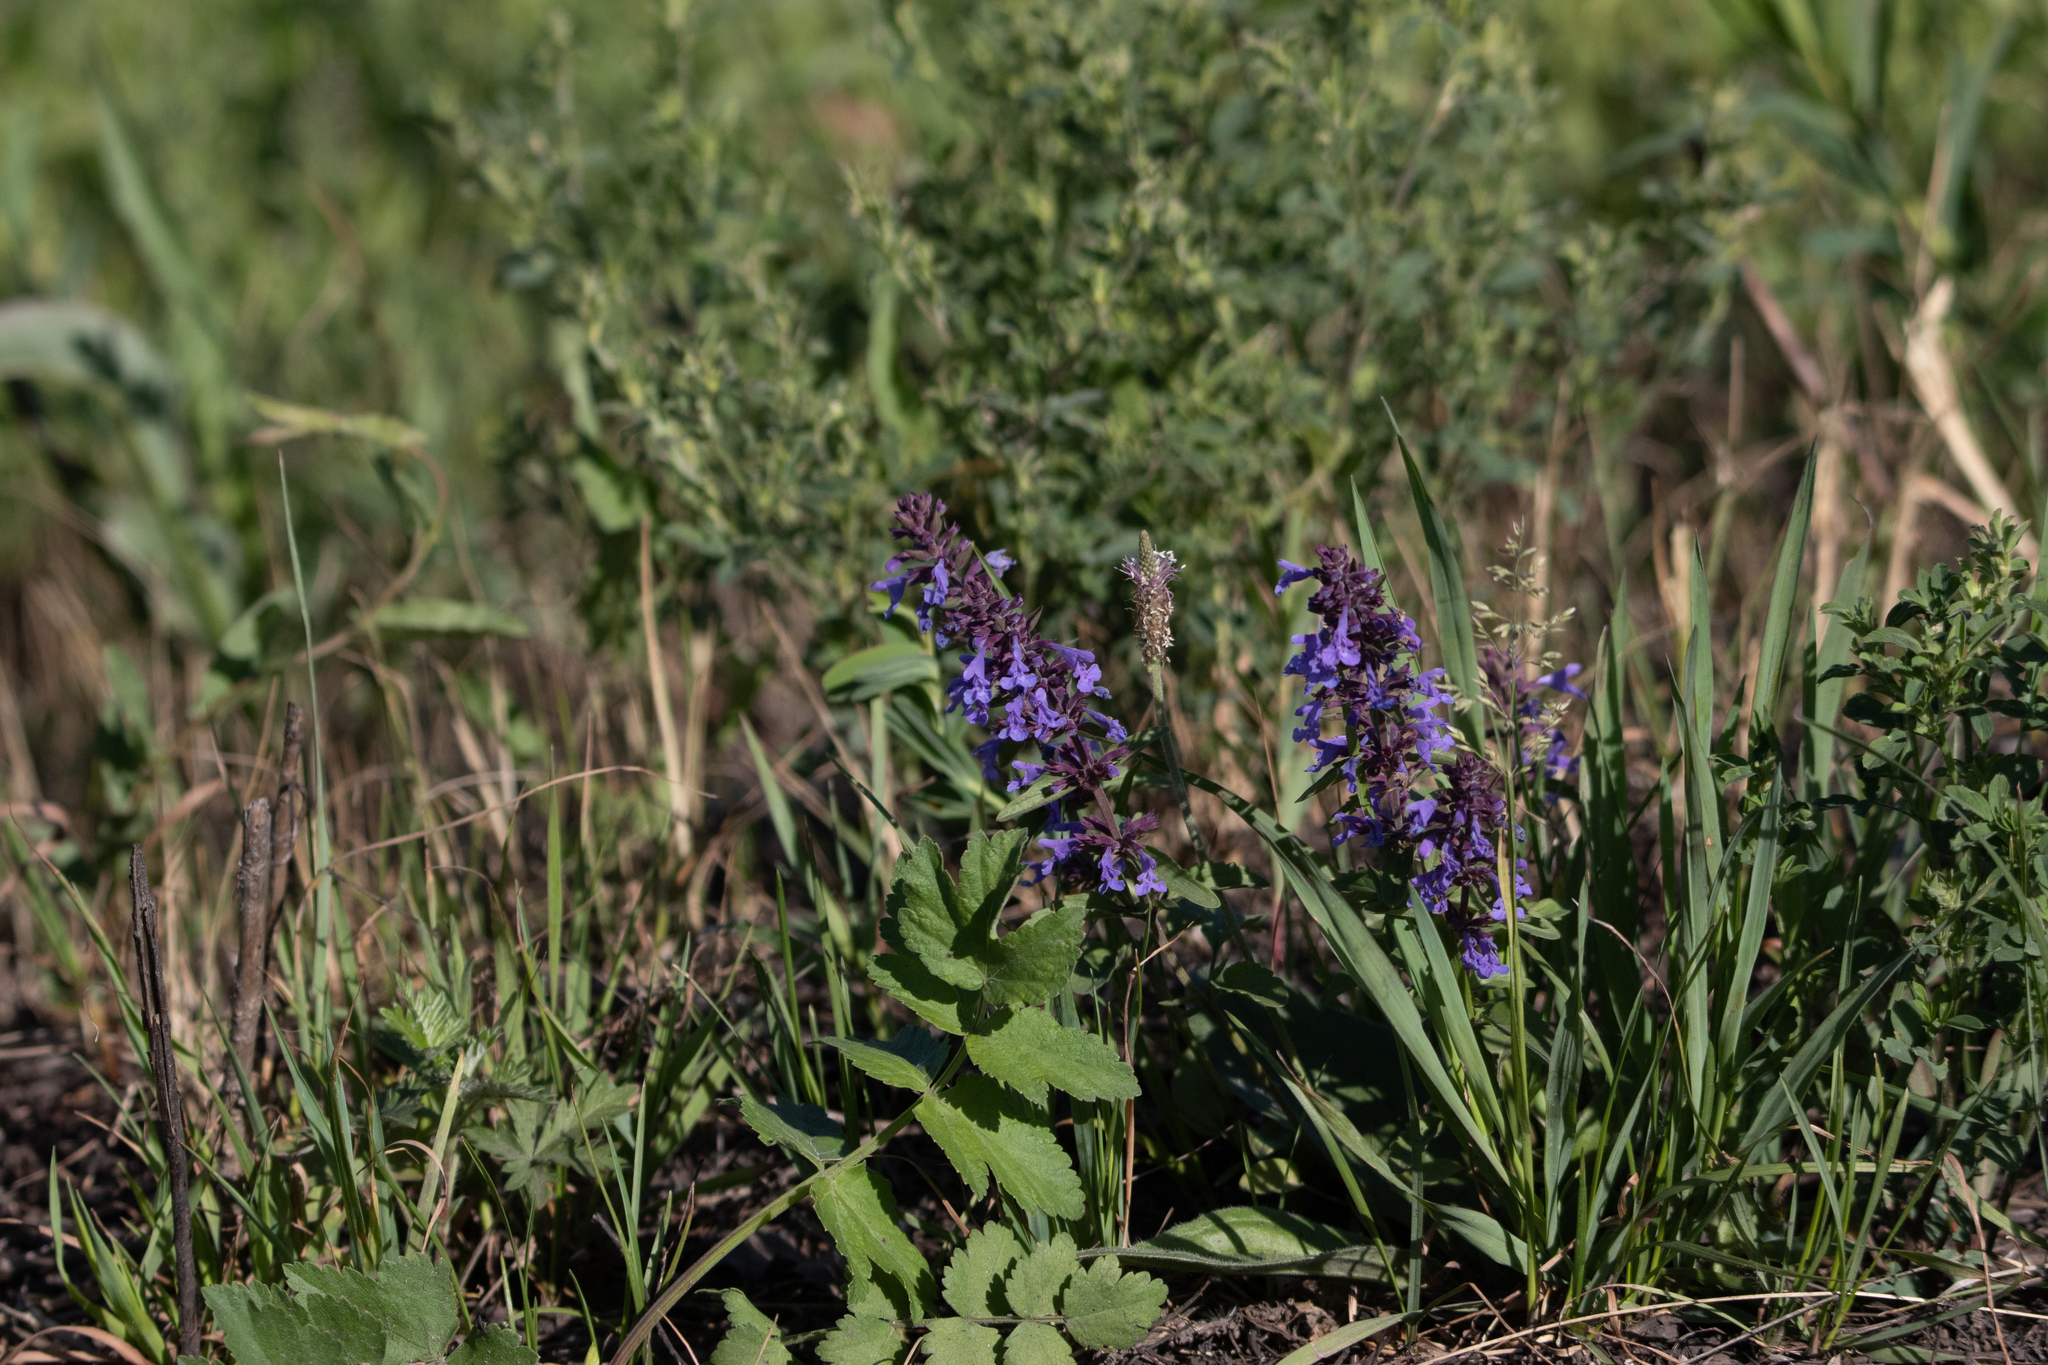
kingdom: Plantae
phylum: Tracheophyta
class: Magnoliopsida
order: Lamiales
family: Lamiaceae
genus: Dracocephalum
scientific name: Dracocephalum nutans
